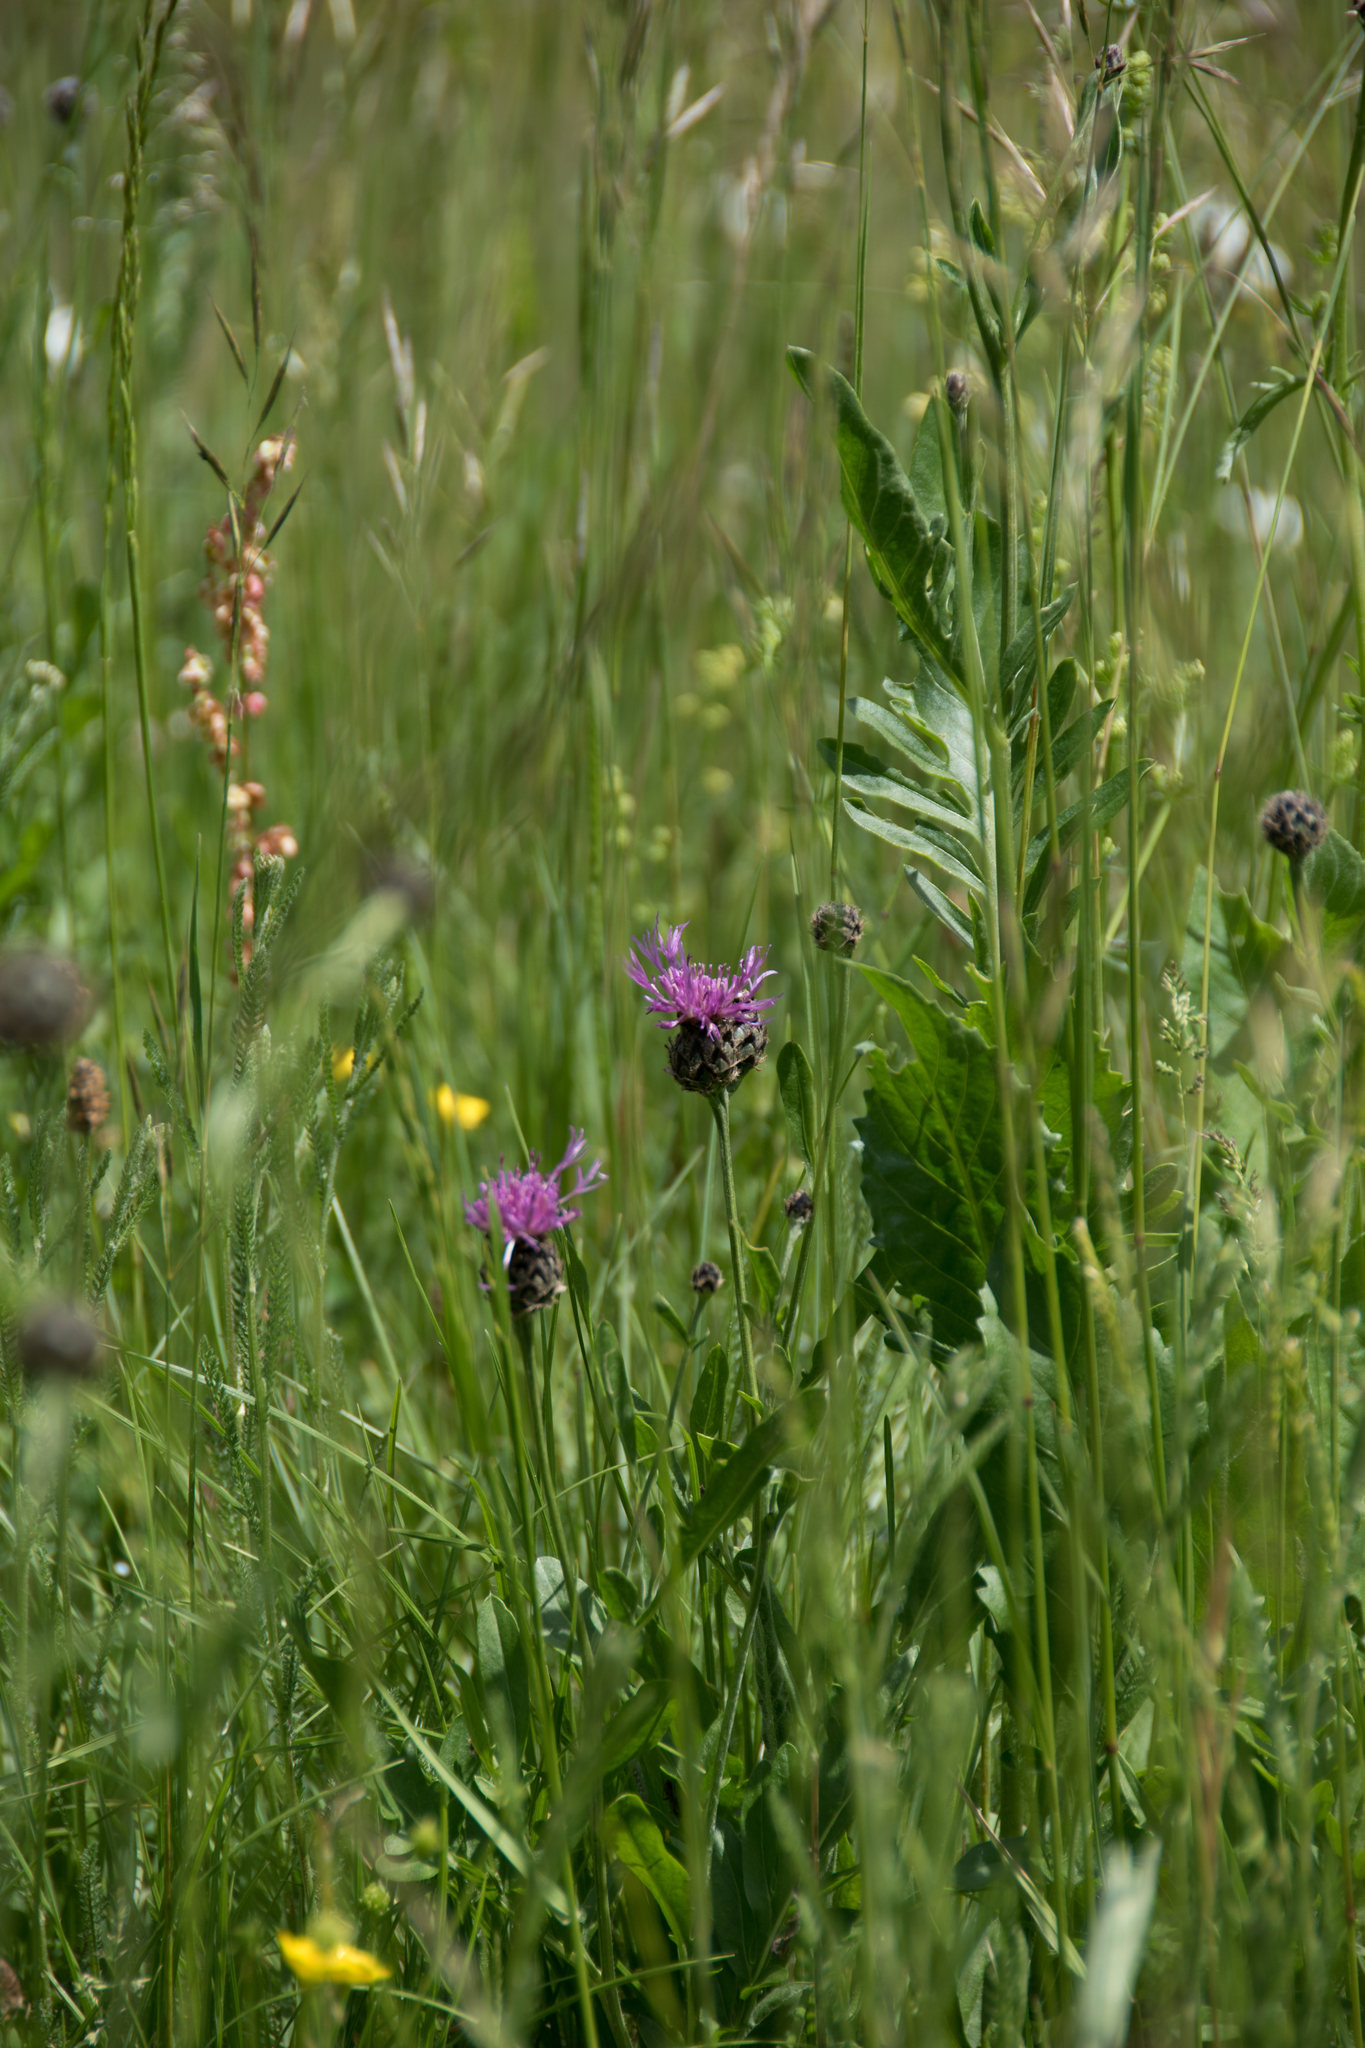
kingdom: Plantae
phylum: Tracheophyta
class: Magnoliopsida
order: Asterales
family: Asteraceae
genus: Centaurea
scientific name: Centaurea scabiosa
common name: Greater knapweed
